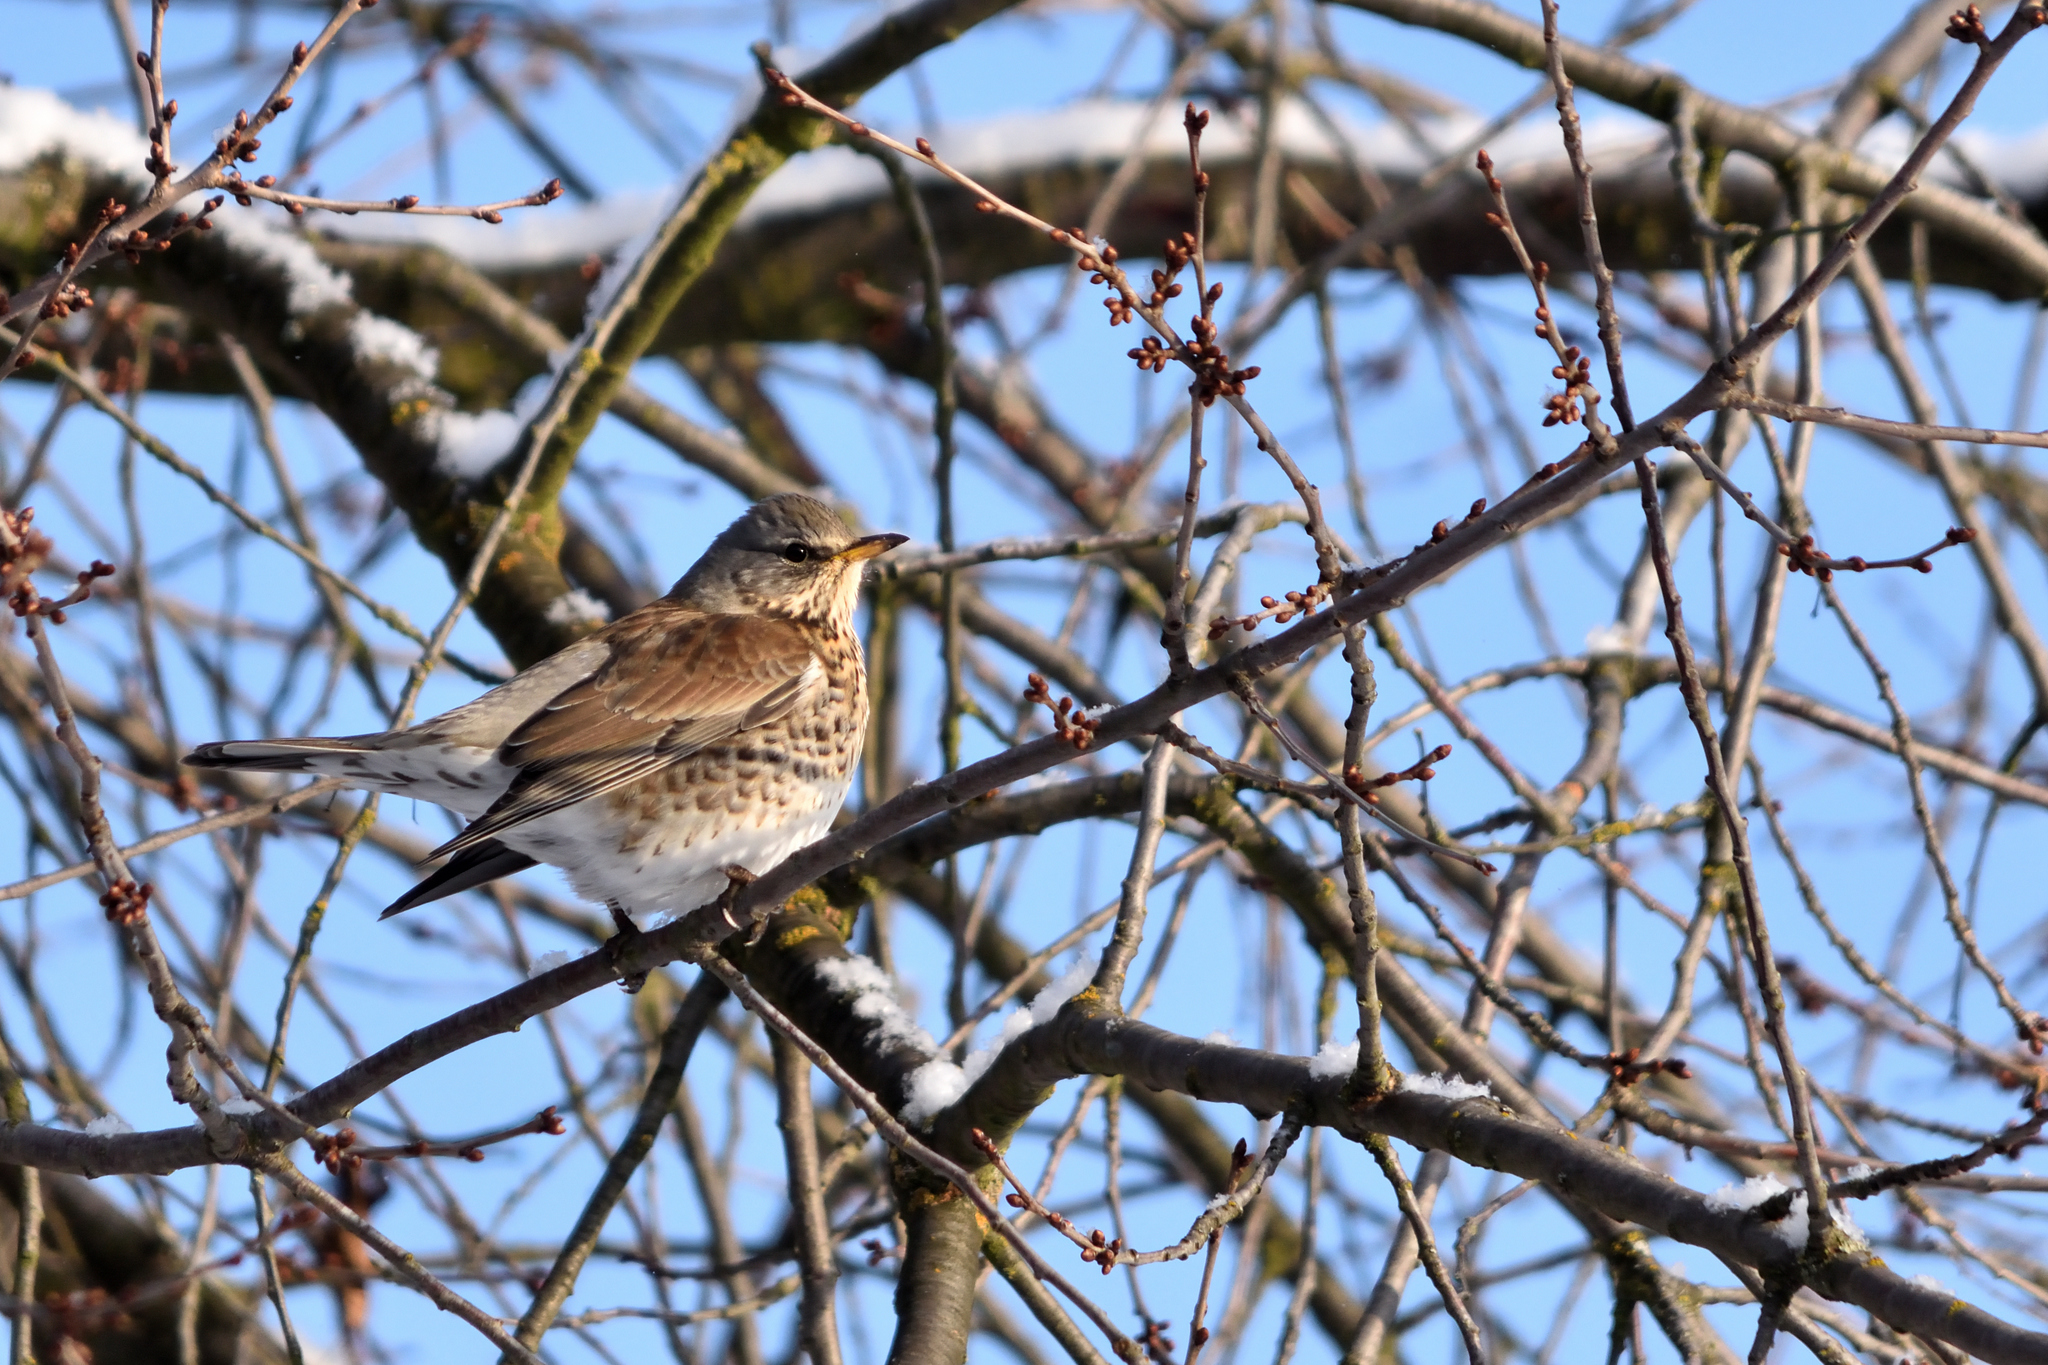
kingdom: Animalia
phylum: Chordata
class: Aves
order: Passeriformes
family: Turdidae
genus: Turdus
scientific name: Turdus pilaris
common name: Fieldfare
